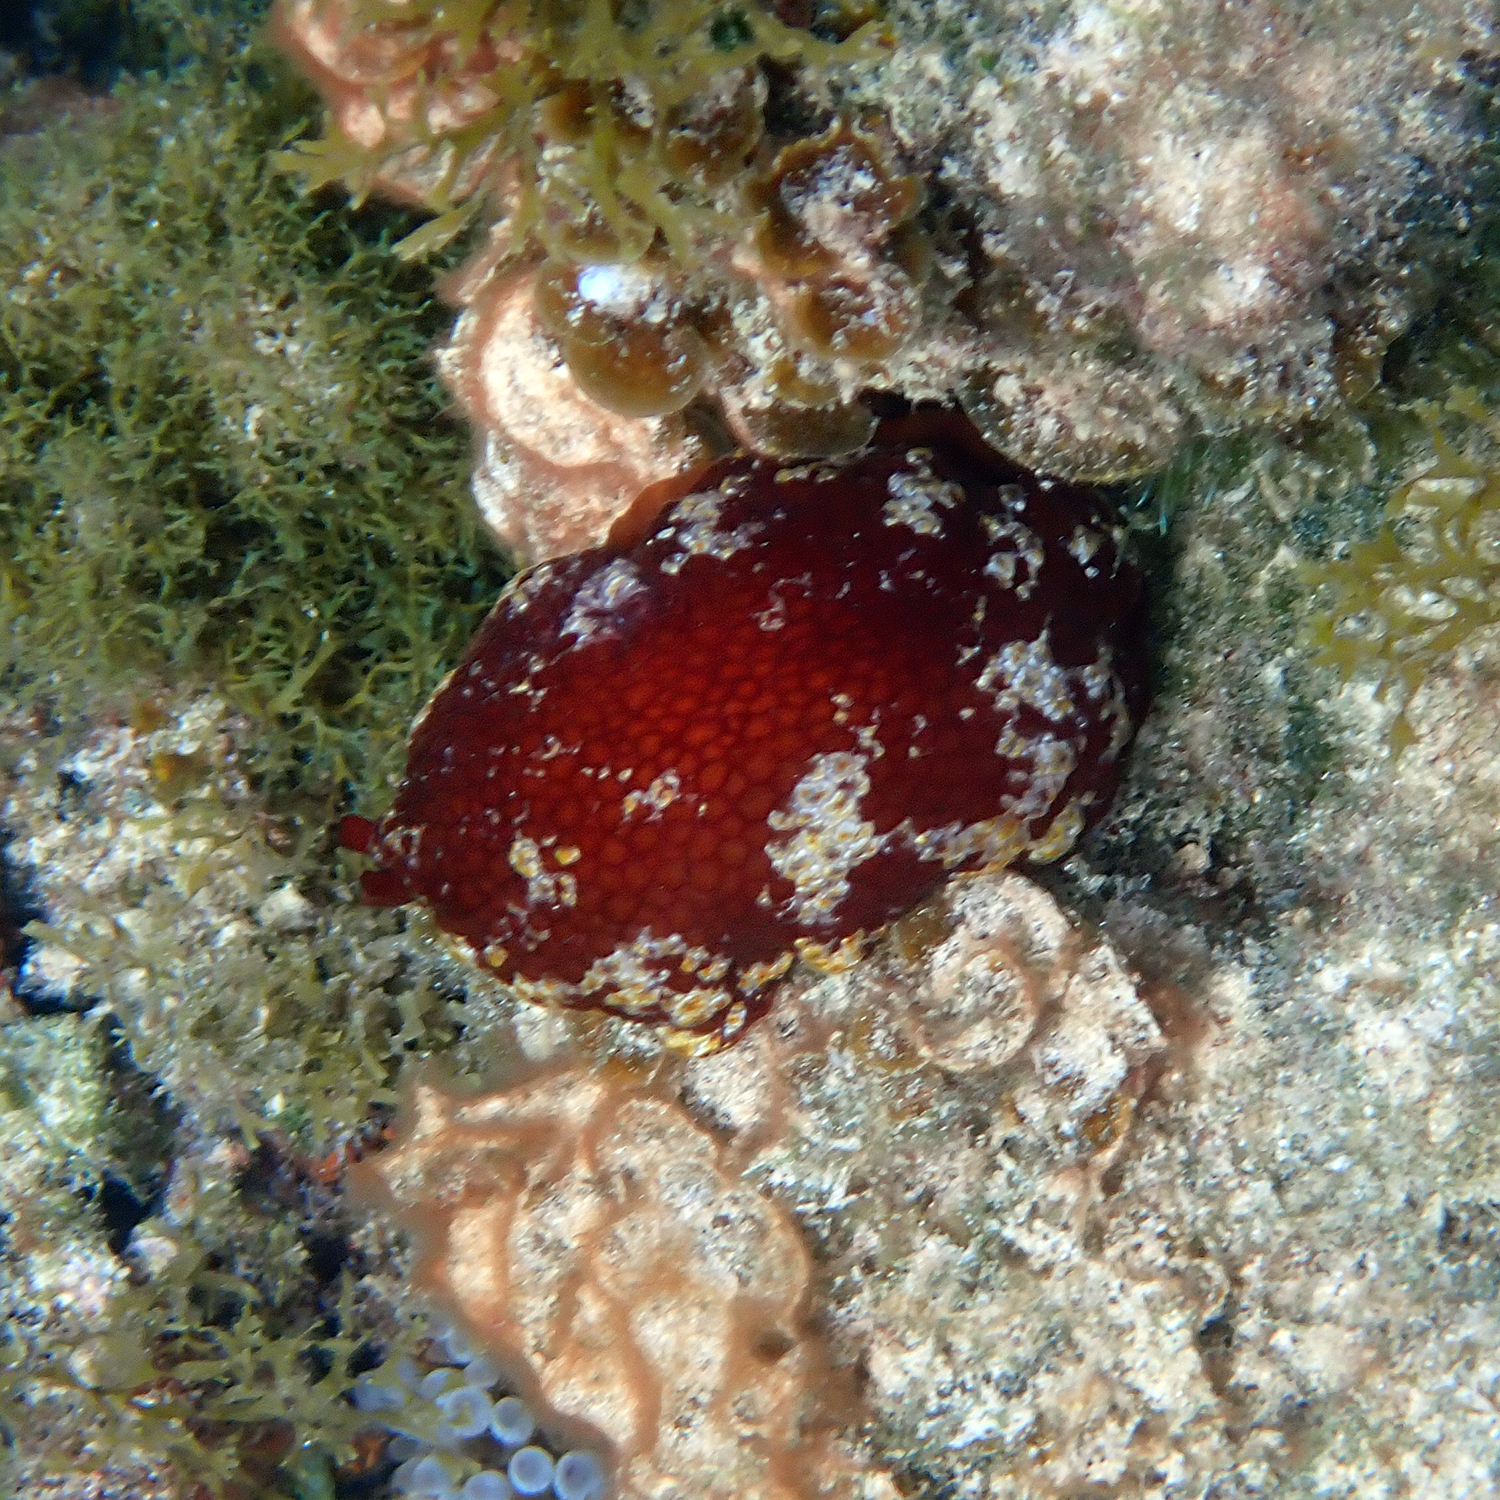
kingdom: Animalia
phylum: Mollusca
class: Gastropoda
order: Pleurobranchida
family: Pleurobranchidae
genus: Pleurobranchus
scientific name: Pleurobranchus peronii
